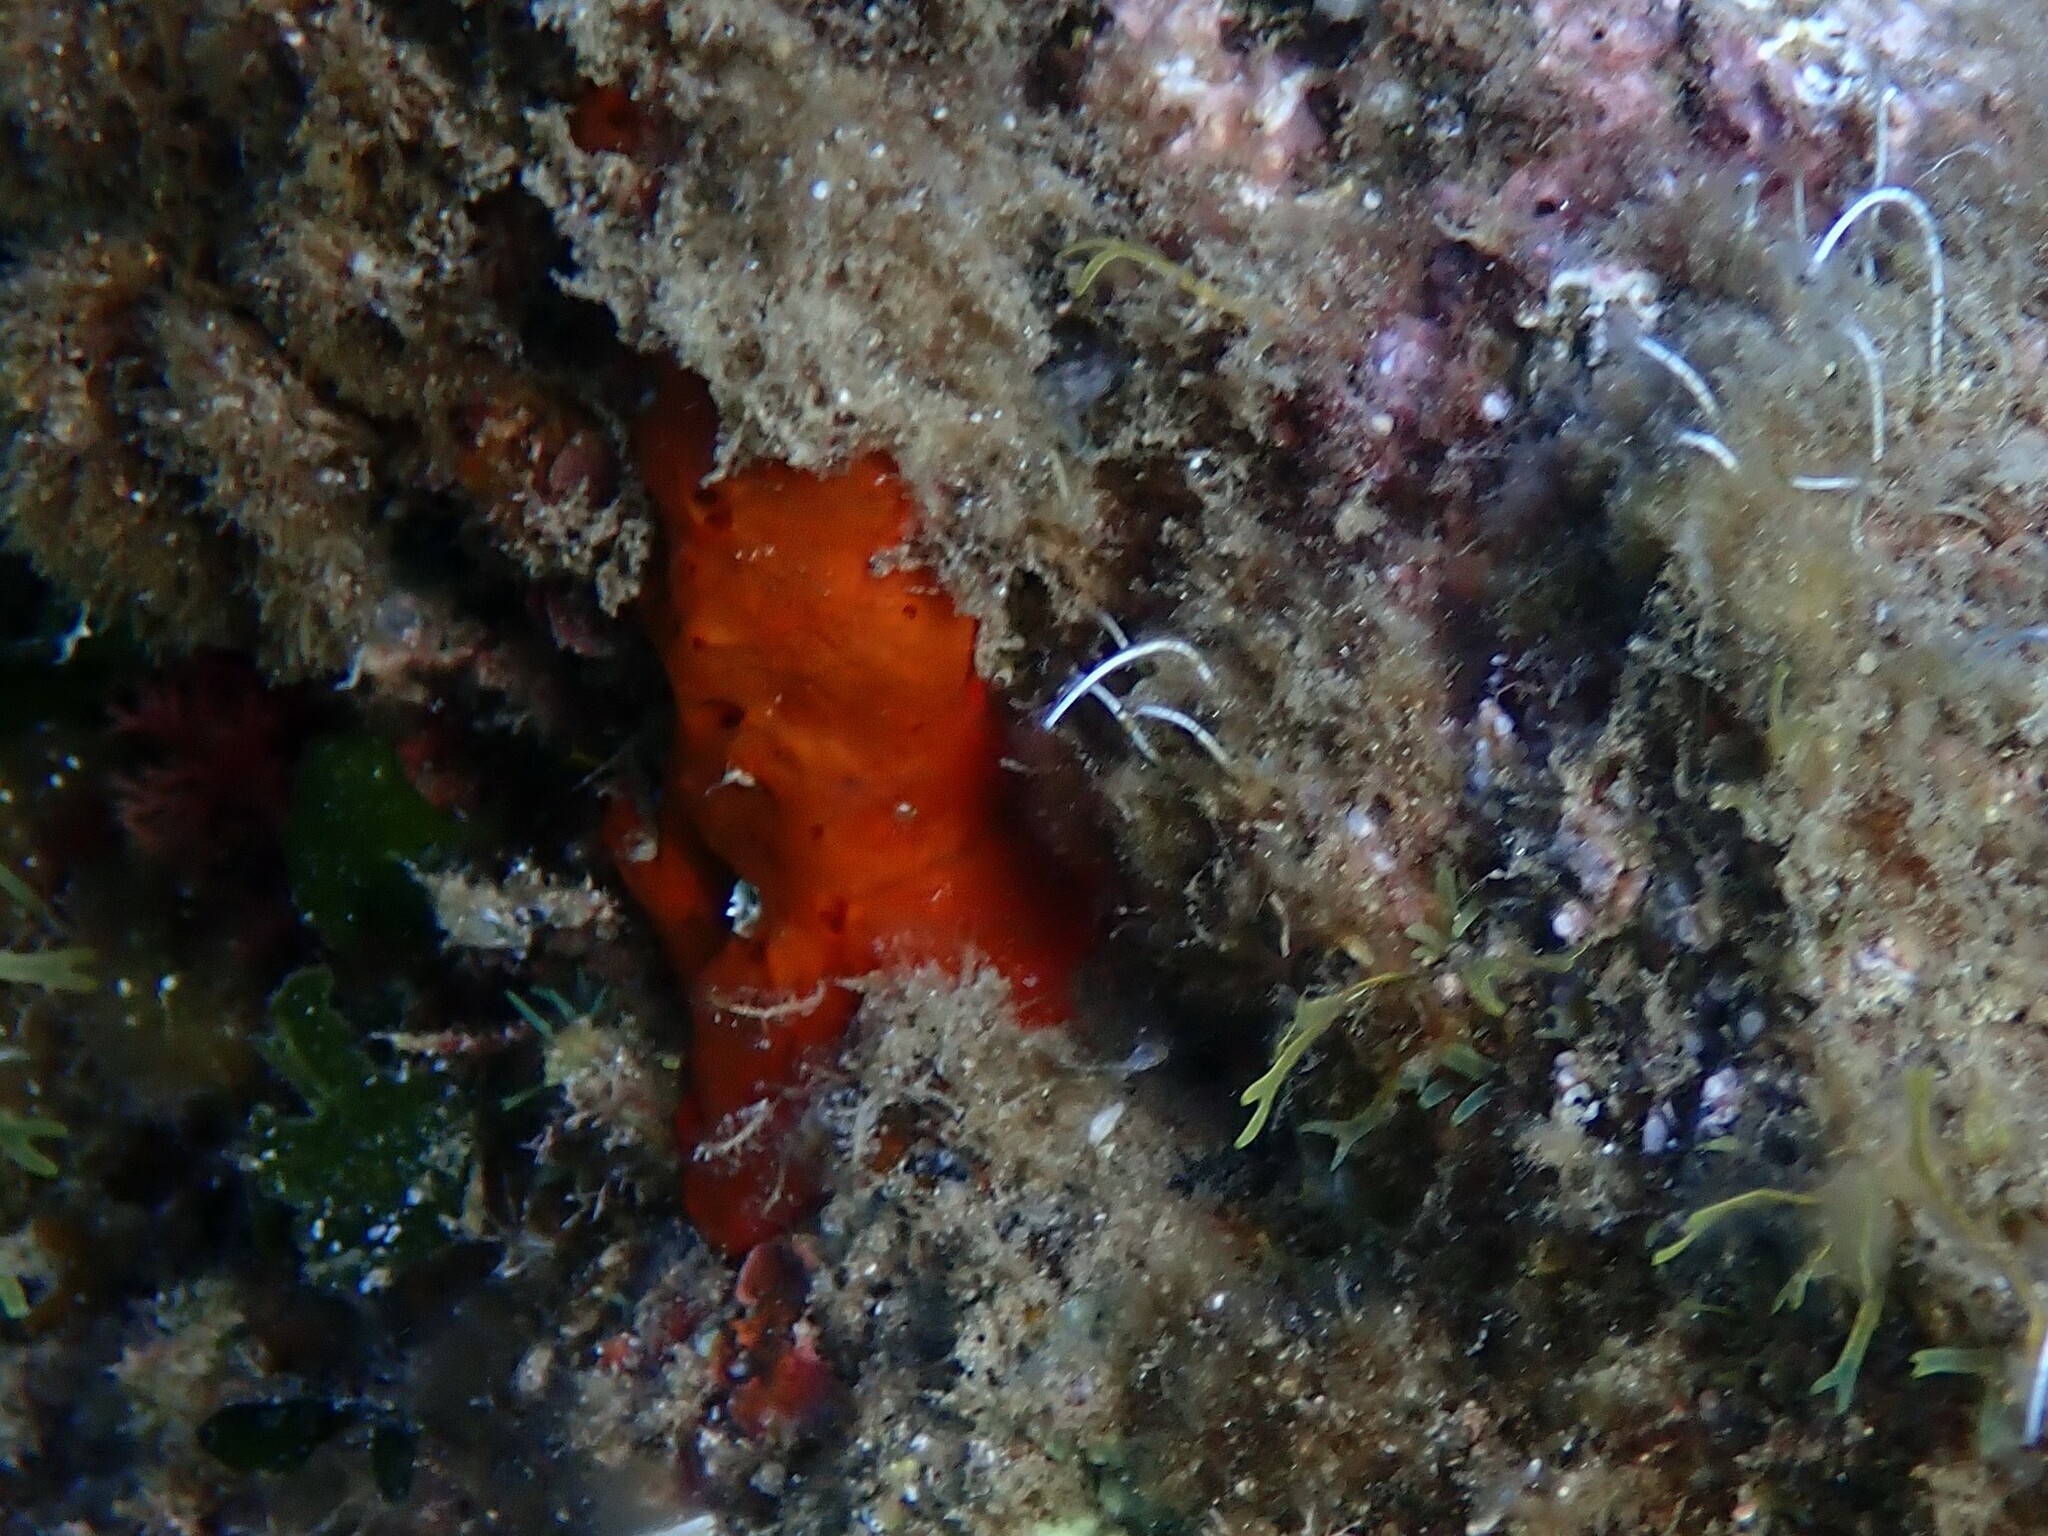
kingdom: Animalia
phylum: Porifera
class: Demospongiae
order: Poecilosclerida
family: Crambeidae
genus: Crambe
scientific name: Crambe crambe
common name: Orange-red encrusting sponge
